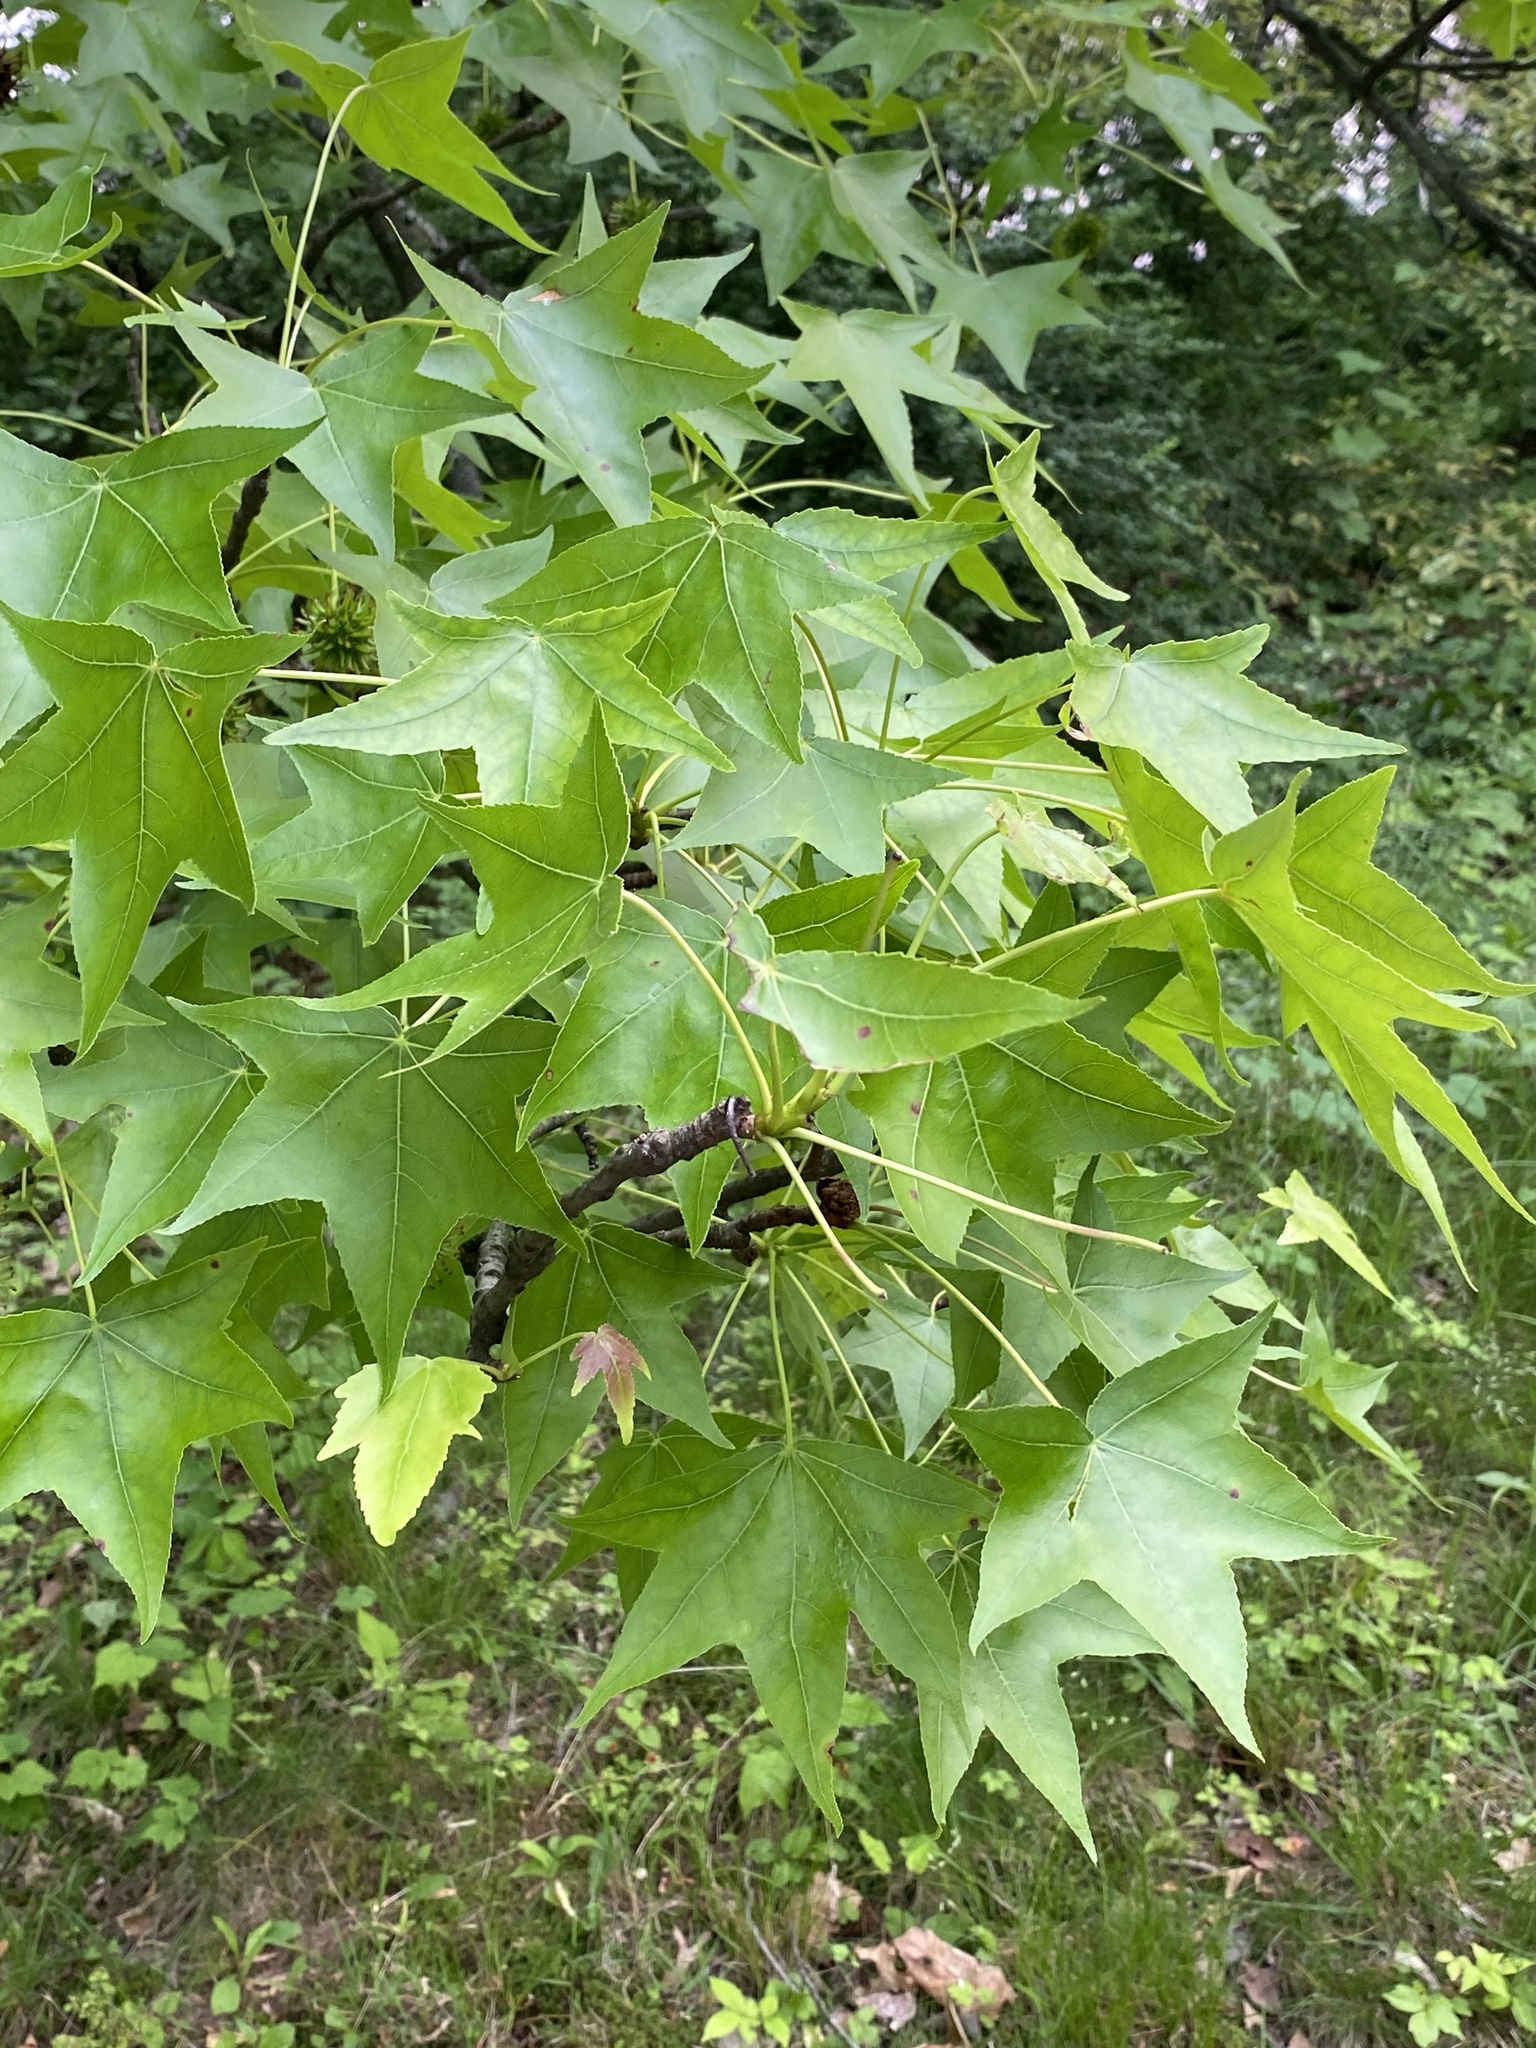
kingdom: Plantae
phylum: Tracheophyta
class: Magnoliopsida
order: Saxifragales
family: Altingiaceae
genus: Liquidambar
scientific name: Liquidambar styraciflua
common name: Sweet gum
